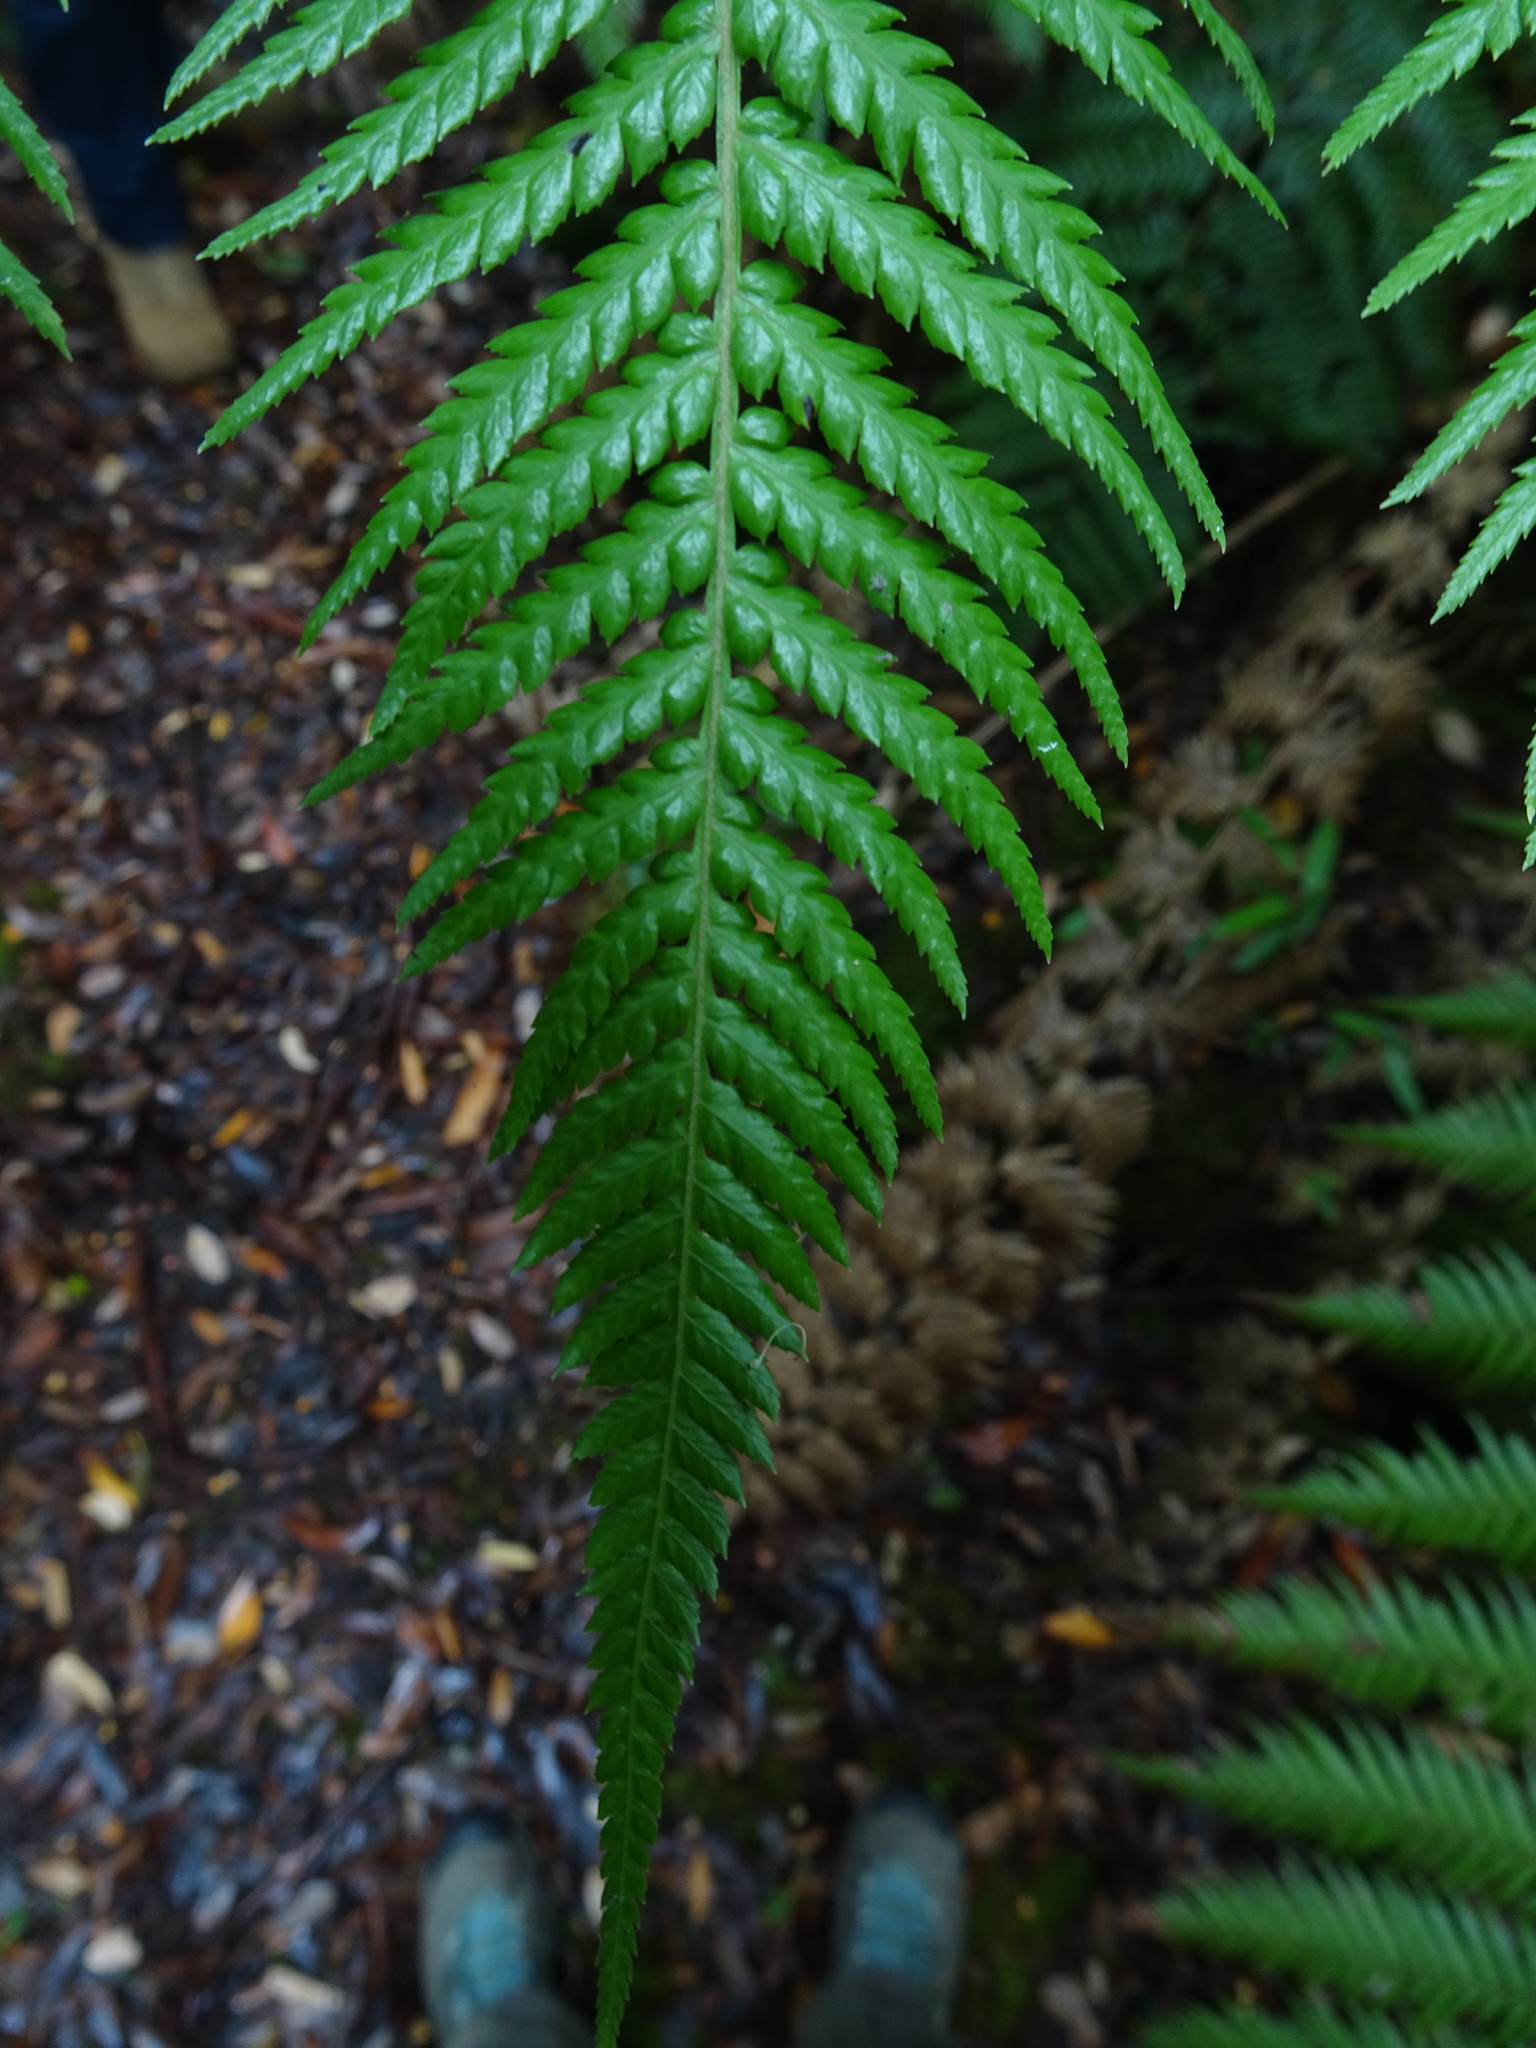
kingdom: Plantae
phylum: Tracheophyta
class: Polypodiopsida
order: Cyatheales
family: Dicksoniaceae
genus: Dicksonia
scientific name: Dicksonia antarctica
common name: Australian treefern
